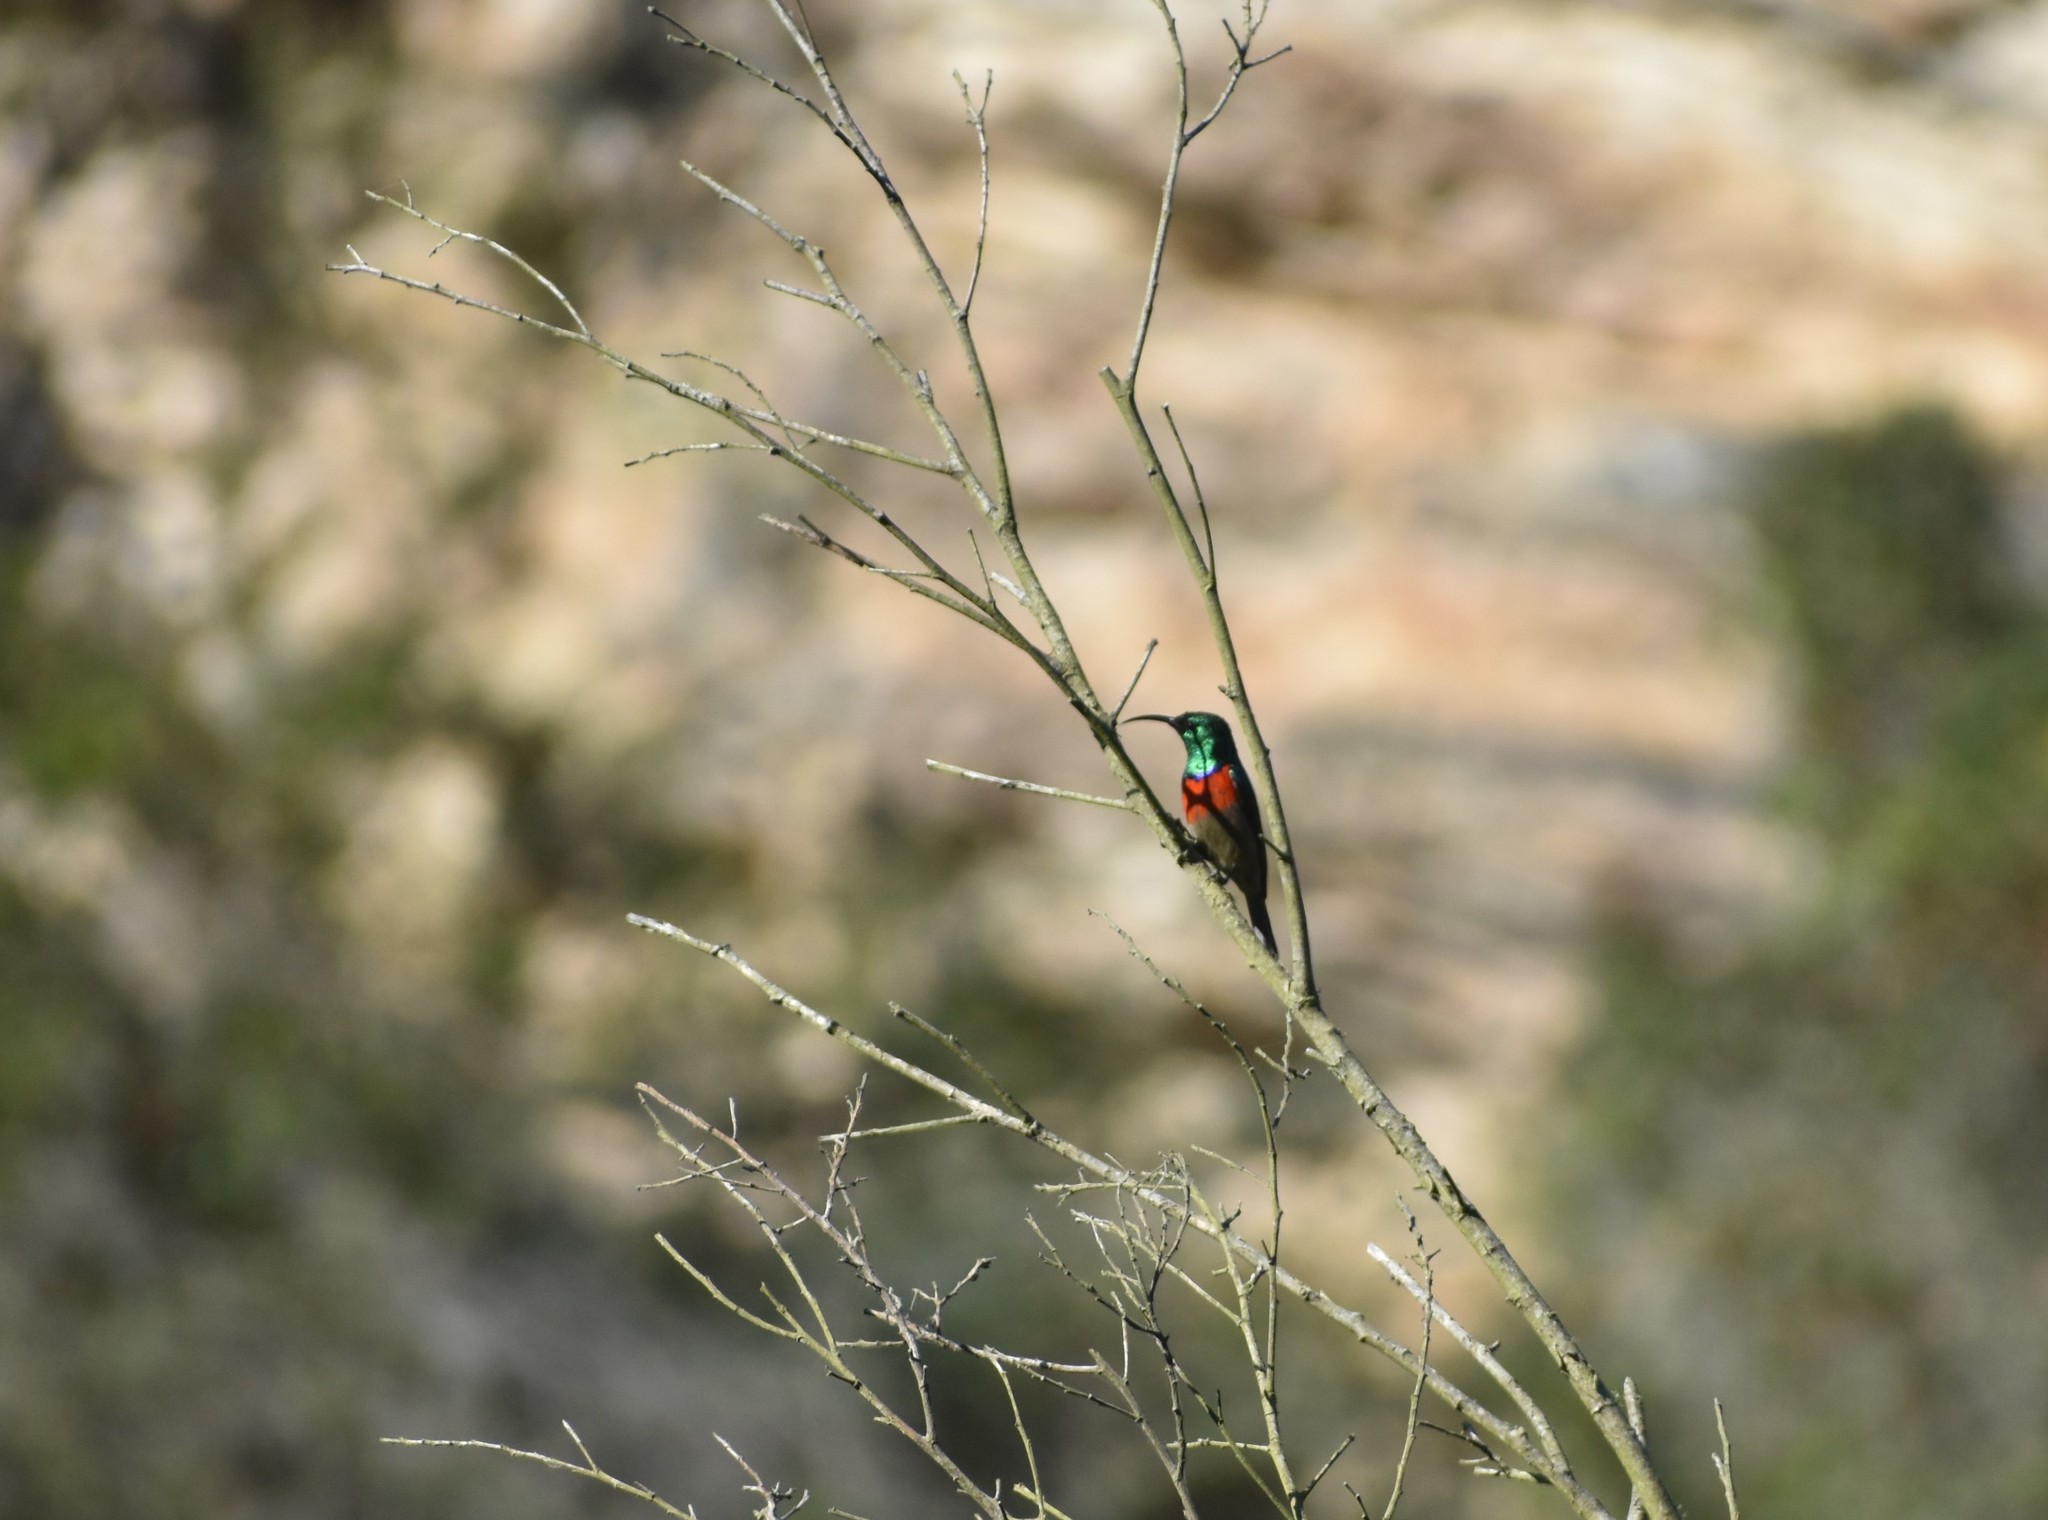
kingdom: Animalia
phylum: Chordata
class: Aves
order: Passeriformes
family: Nectariniidae
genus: Cinnyris
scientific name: Cinnyris afer
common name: Greater double-collared sunbird
